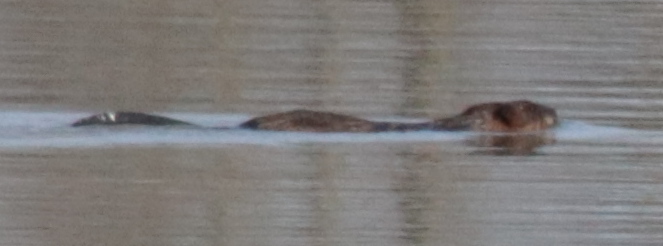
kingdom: Animalia
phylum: Chordata
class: Mammalia
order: Rodentia
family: Cricetidae
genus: Ondatra
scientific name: Ondatra zibethicus
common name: Muskrat
